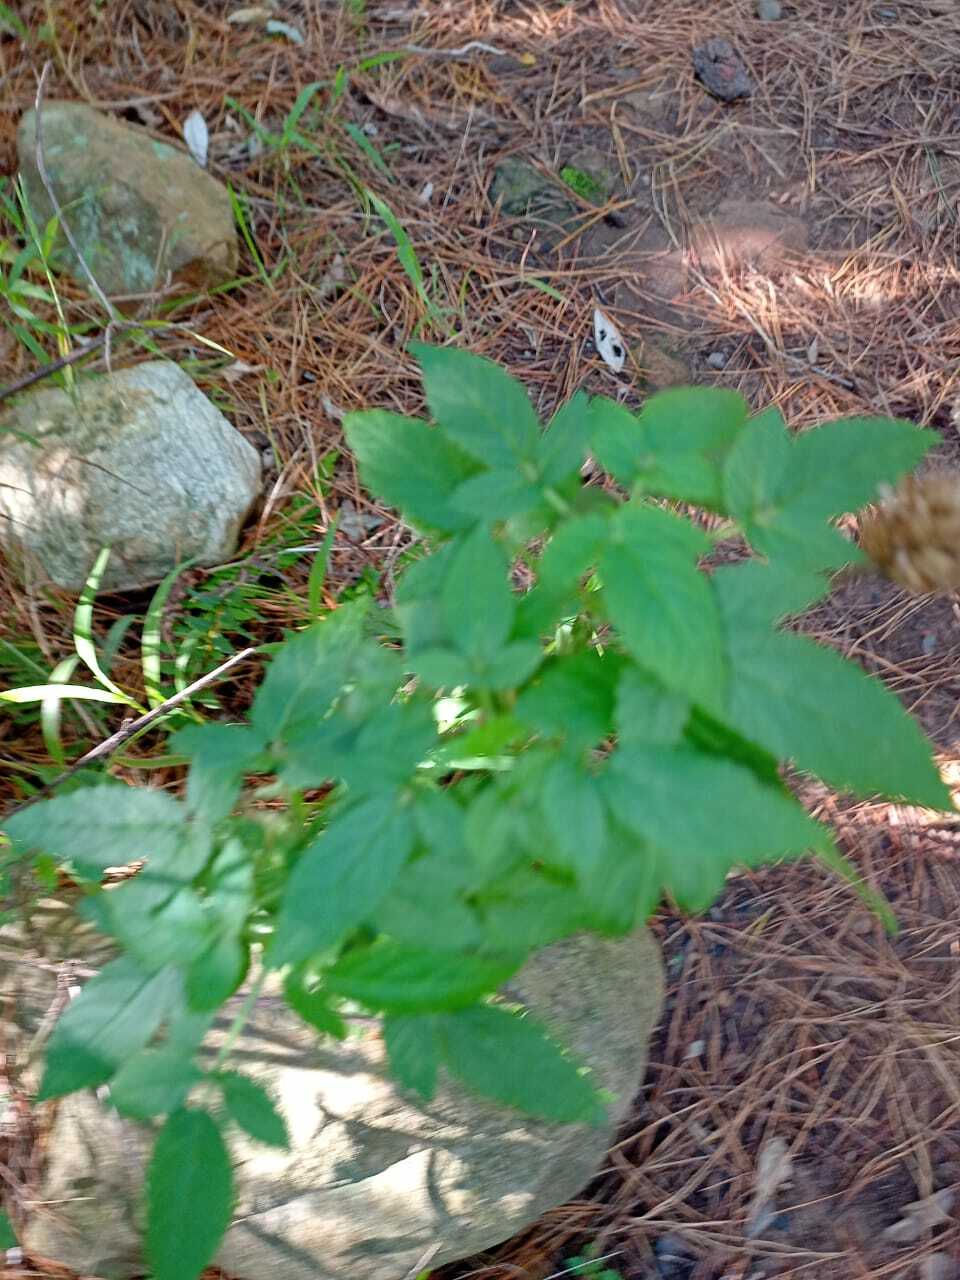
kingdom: Plantae
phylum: Tracheophyta
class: Magnoliopsida
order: Lamiales
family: Lamiaceae
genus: Cedronella
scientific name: Cedronella canariensis
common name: Canary islands balm
